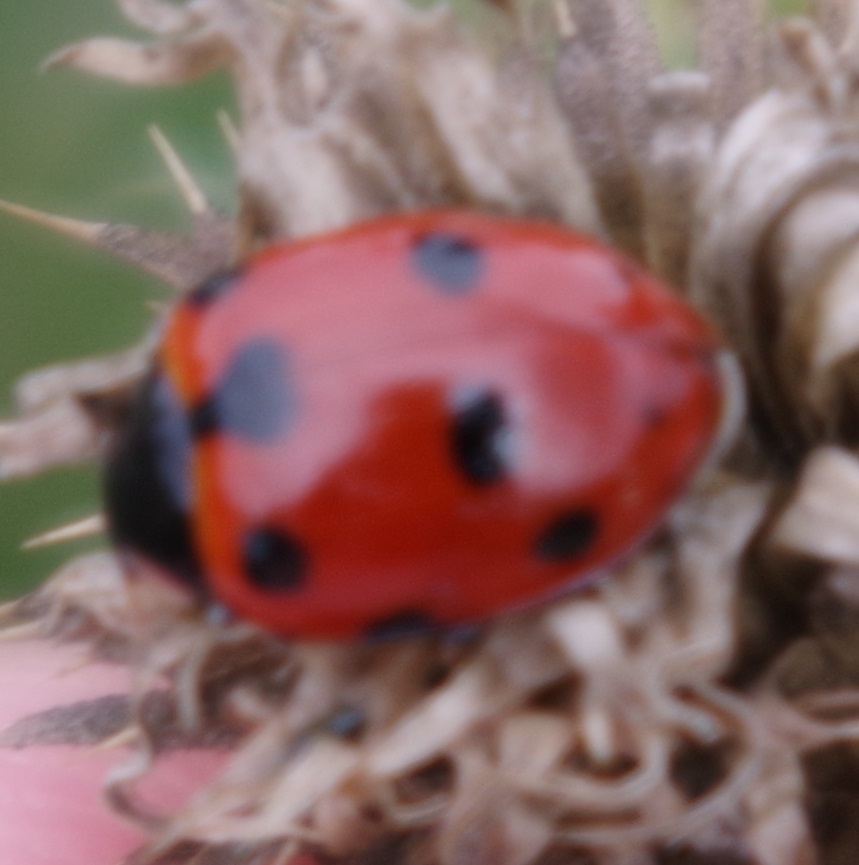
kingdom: Animalia
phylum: Arthropoda
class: Insecta
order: Coleoptera
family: Coccinellidae
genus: Ceratomegilla
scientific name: Ceratomegilla undecimnotata
